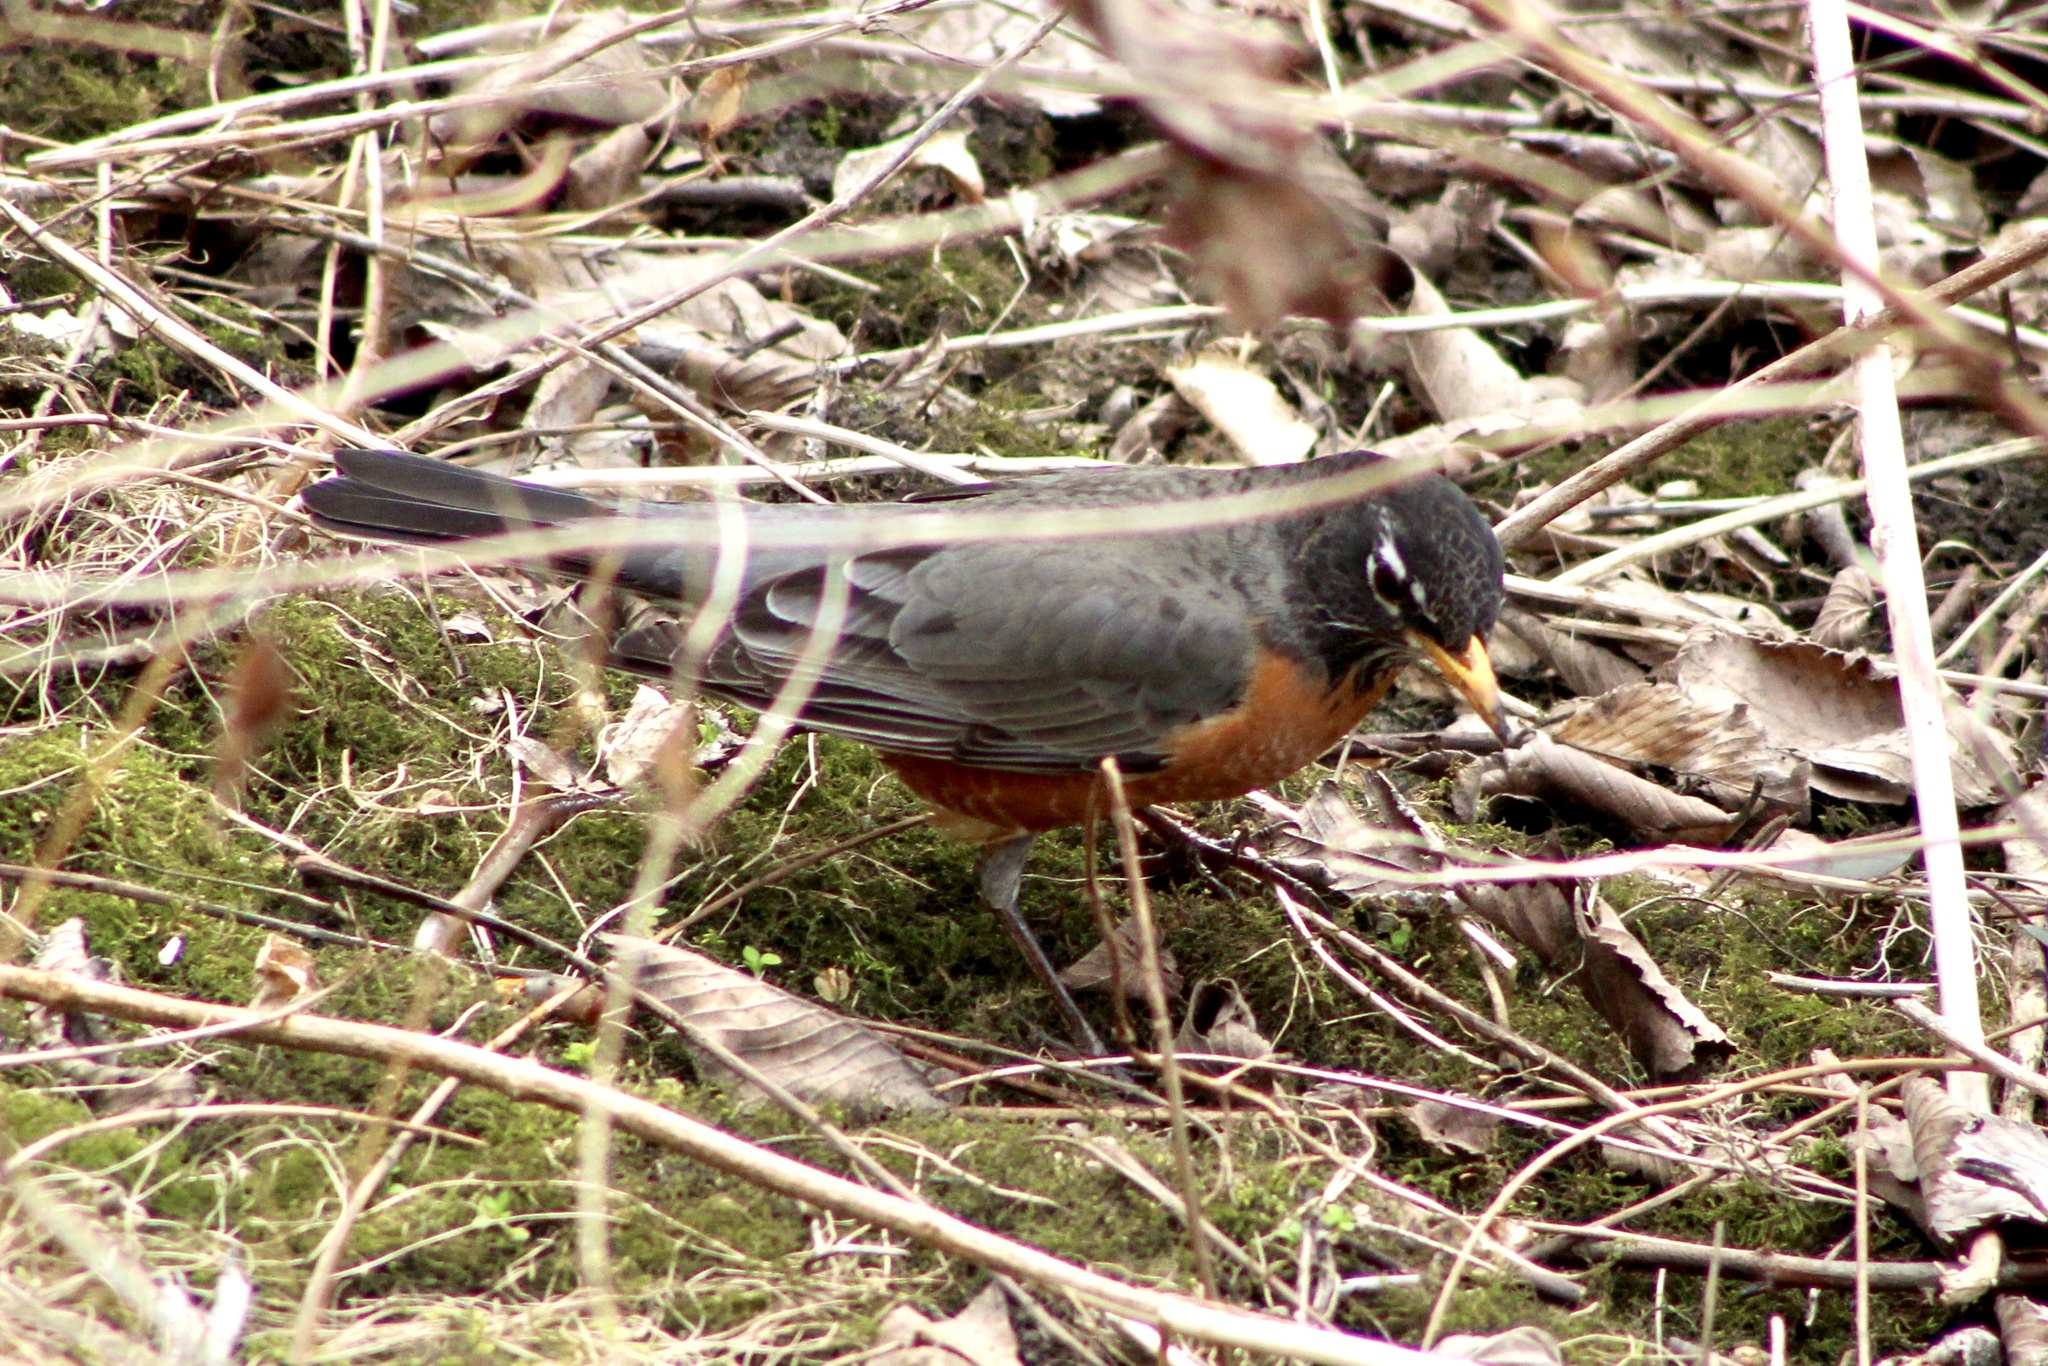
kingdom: Animalia
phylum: Chordata
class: Aves
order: Passeriformes
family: Turdidae
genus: Turdus
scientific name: Turdus migratorius
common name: American robin
